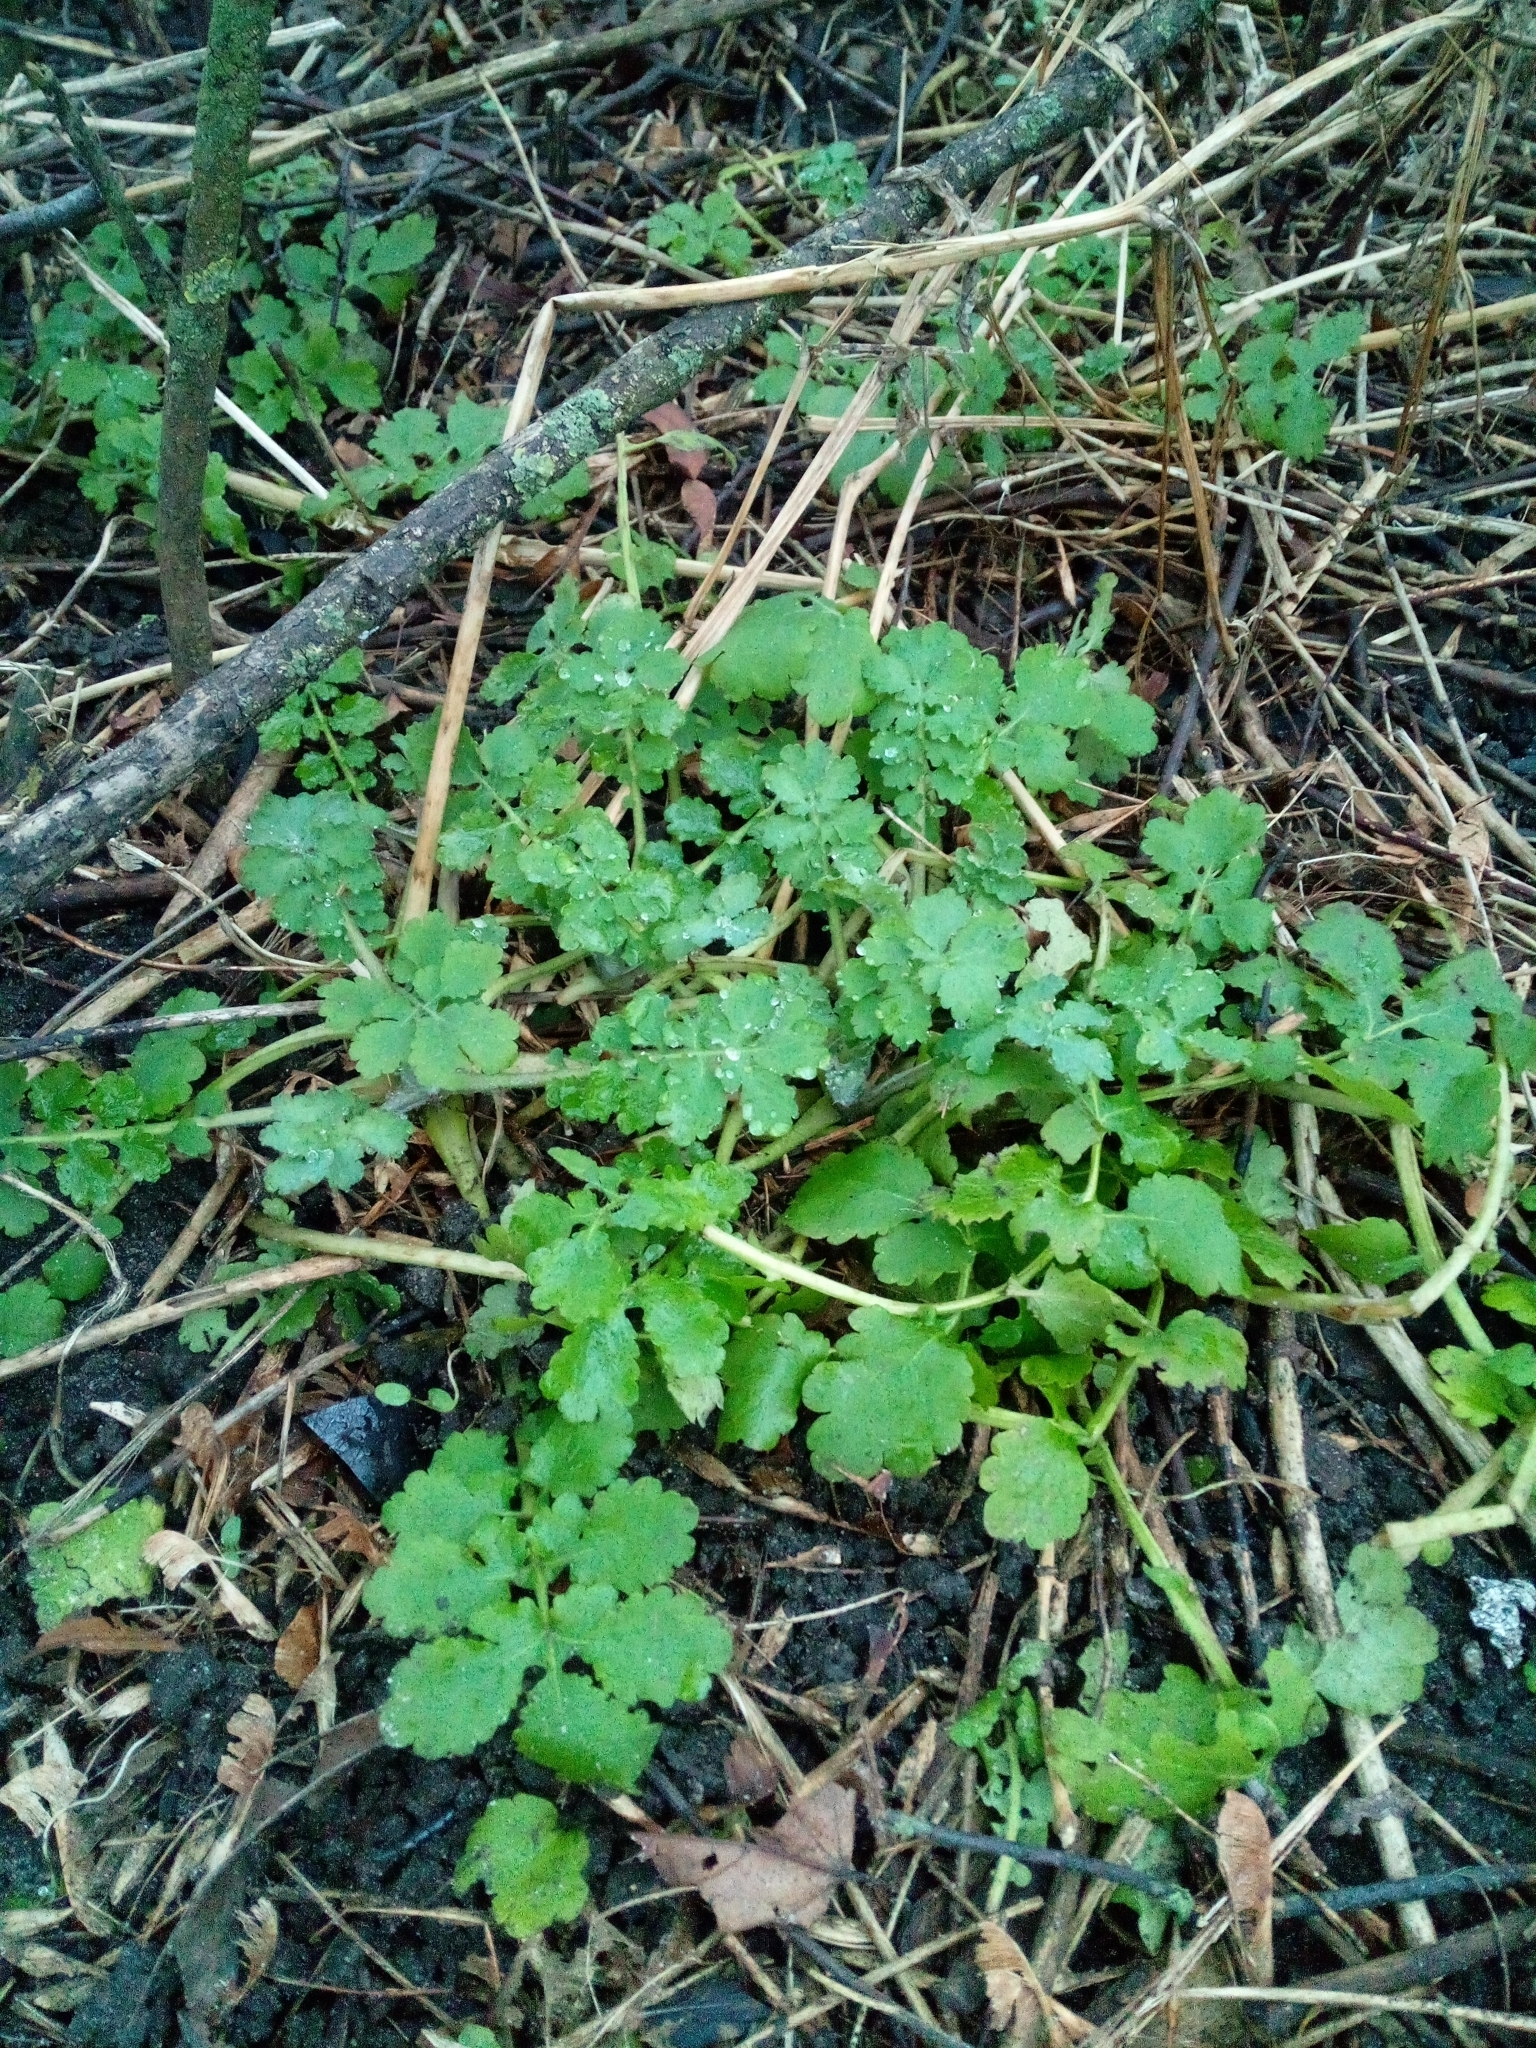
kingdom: Plantae
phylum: Tracheophyta
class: Magnoliopsida
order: Ranunculales
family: Papaveraceae
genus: Chelidonium
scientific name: Chelidonium majus
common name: Greater celandine
